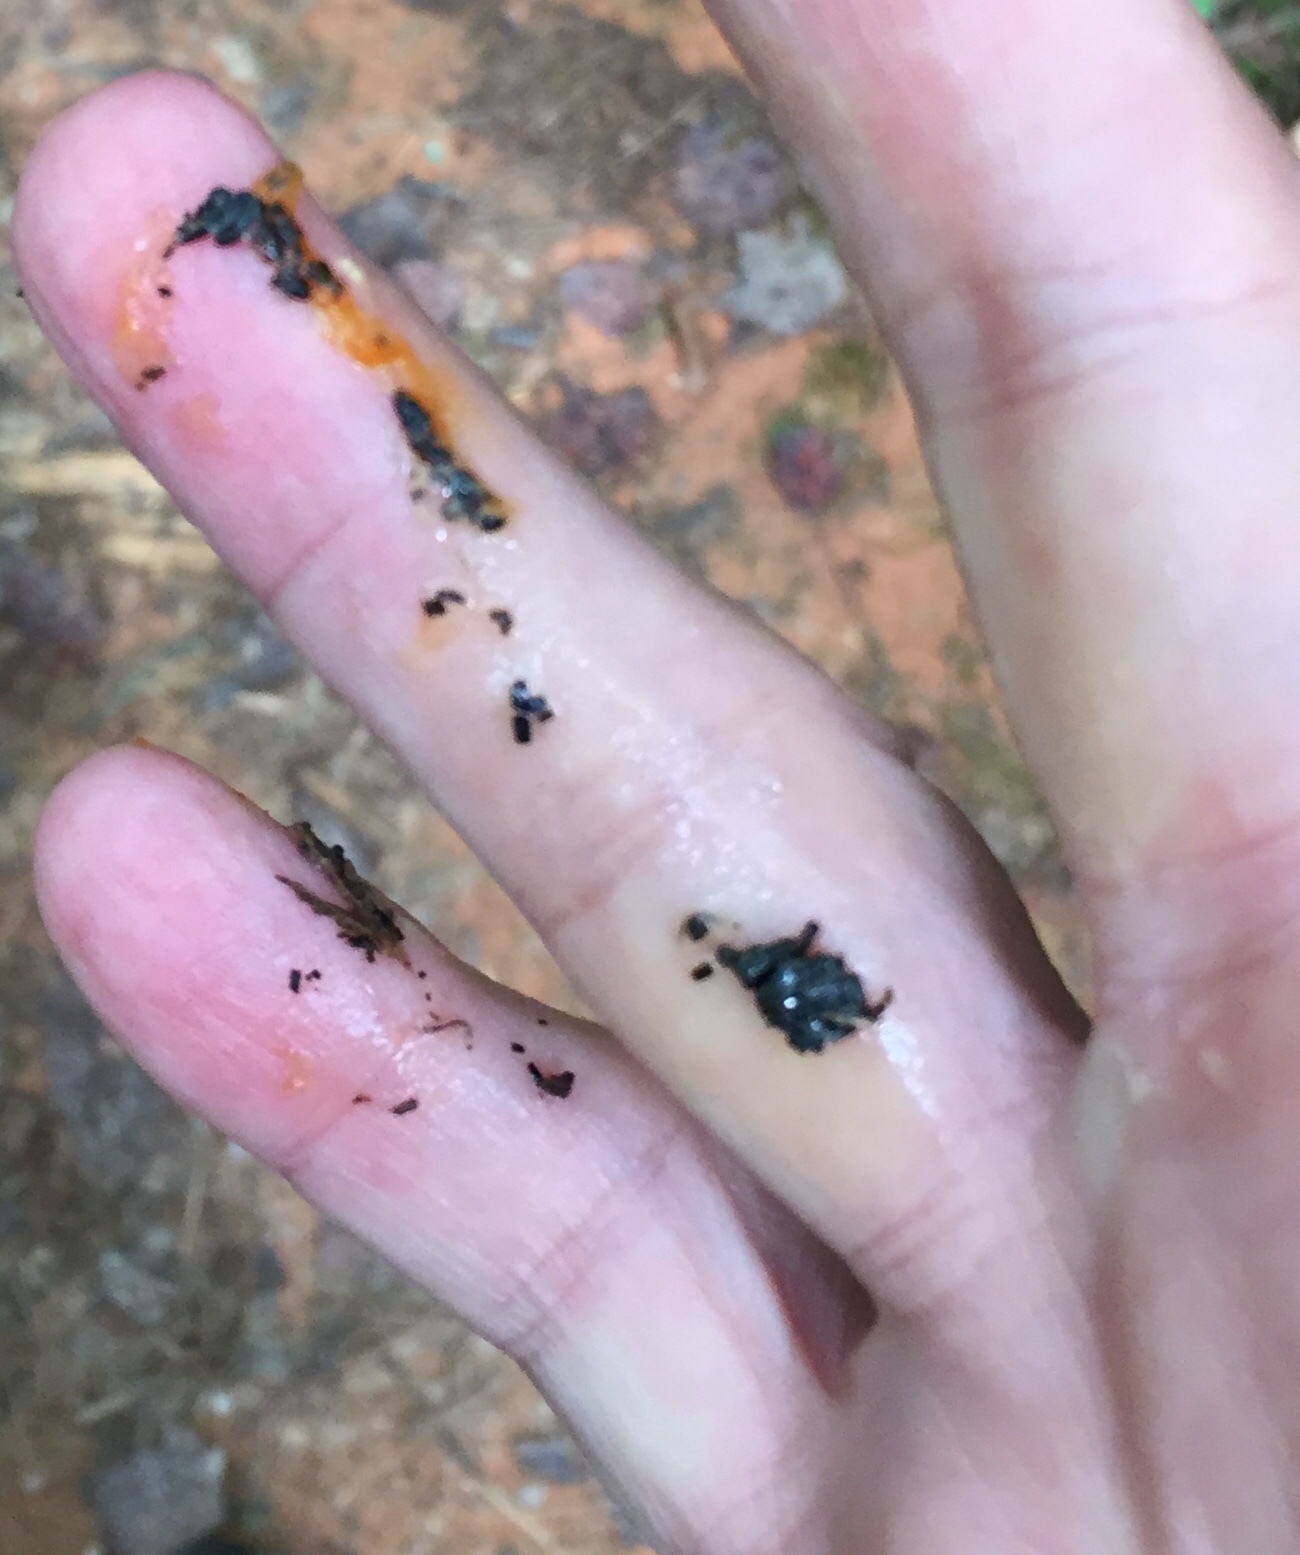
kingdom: Animalia
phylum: Mollusca
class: Gastropoda
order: Stylommatophora
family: Philomycidae
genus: Philomycus
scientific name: Philomycus togatus
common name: Toga mantleslug
